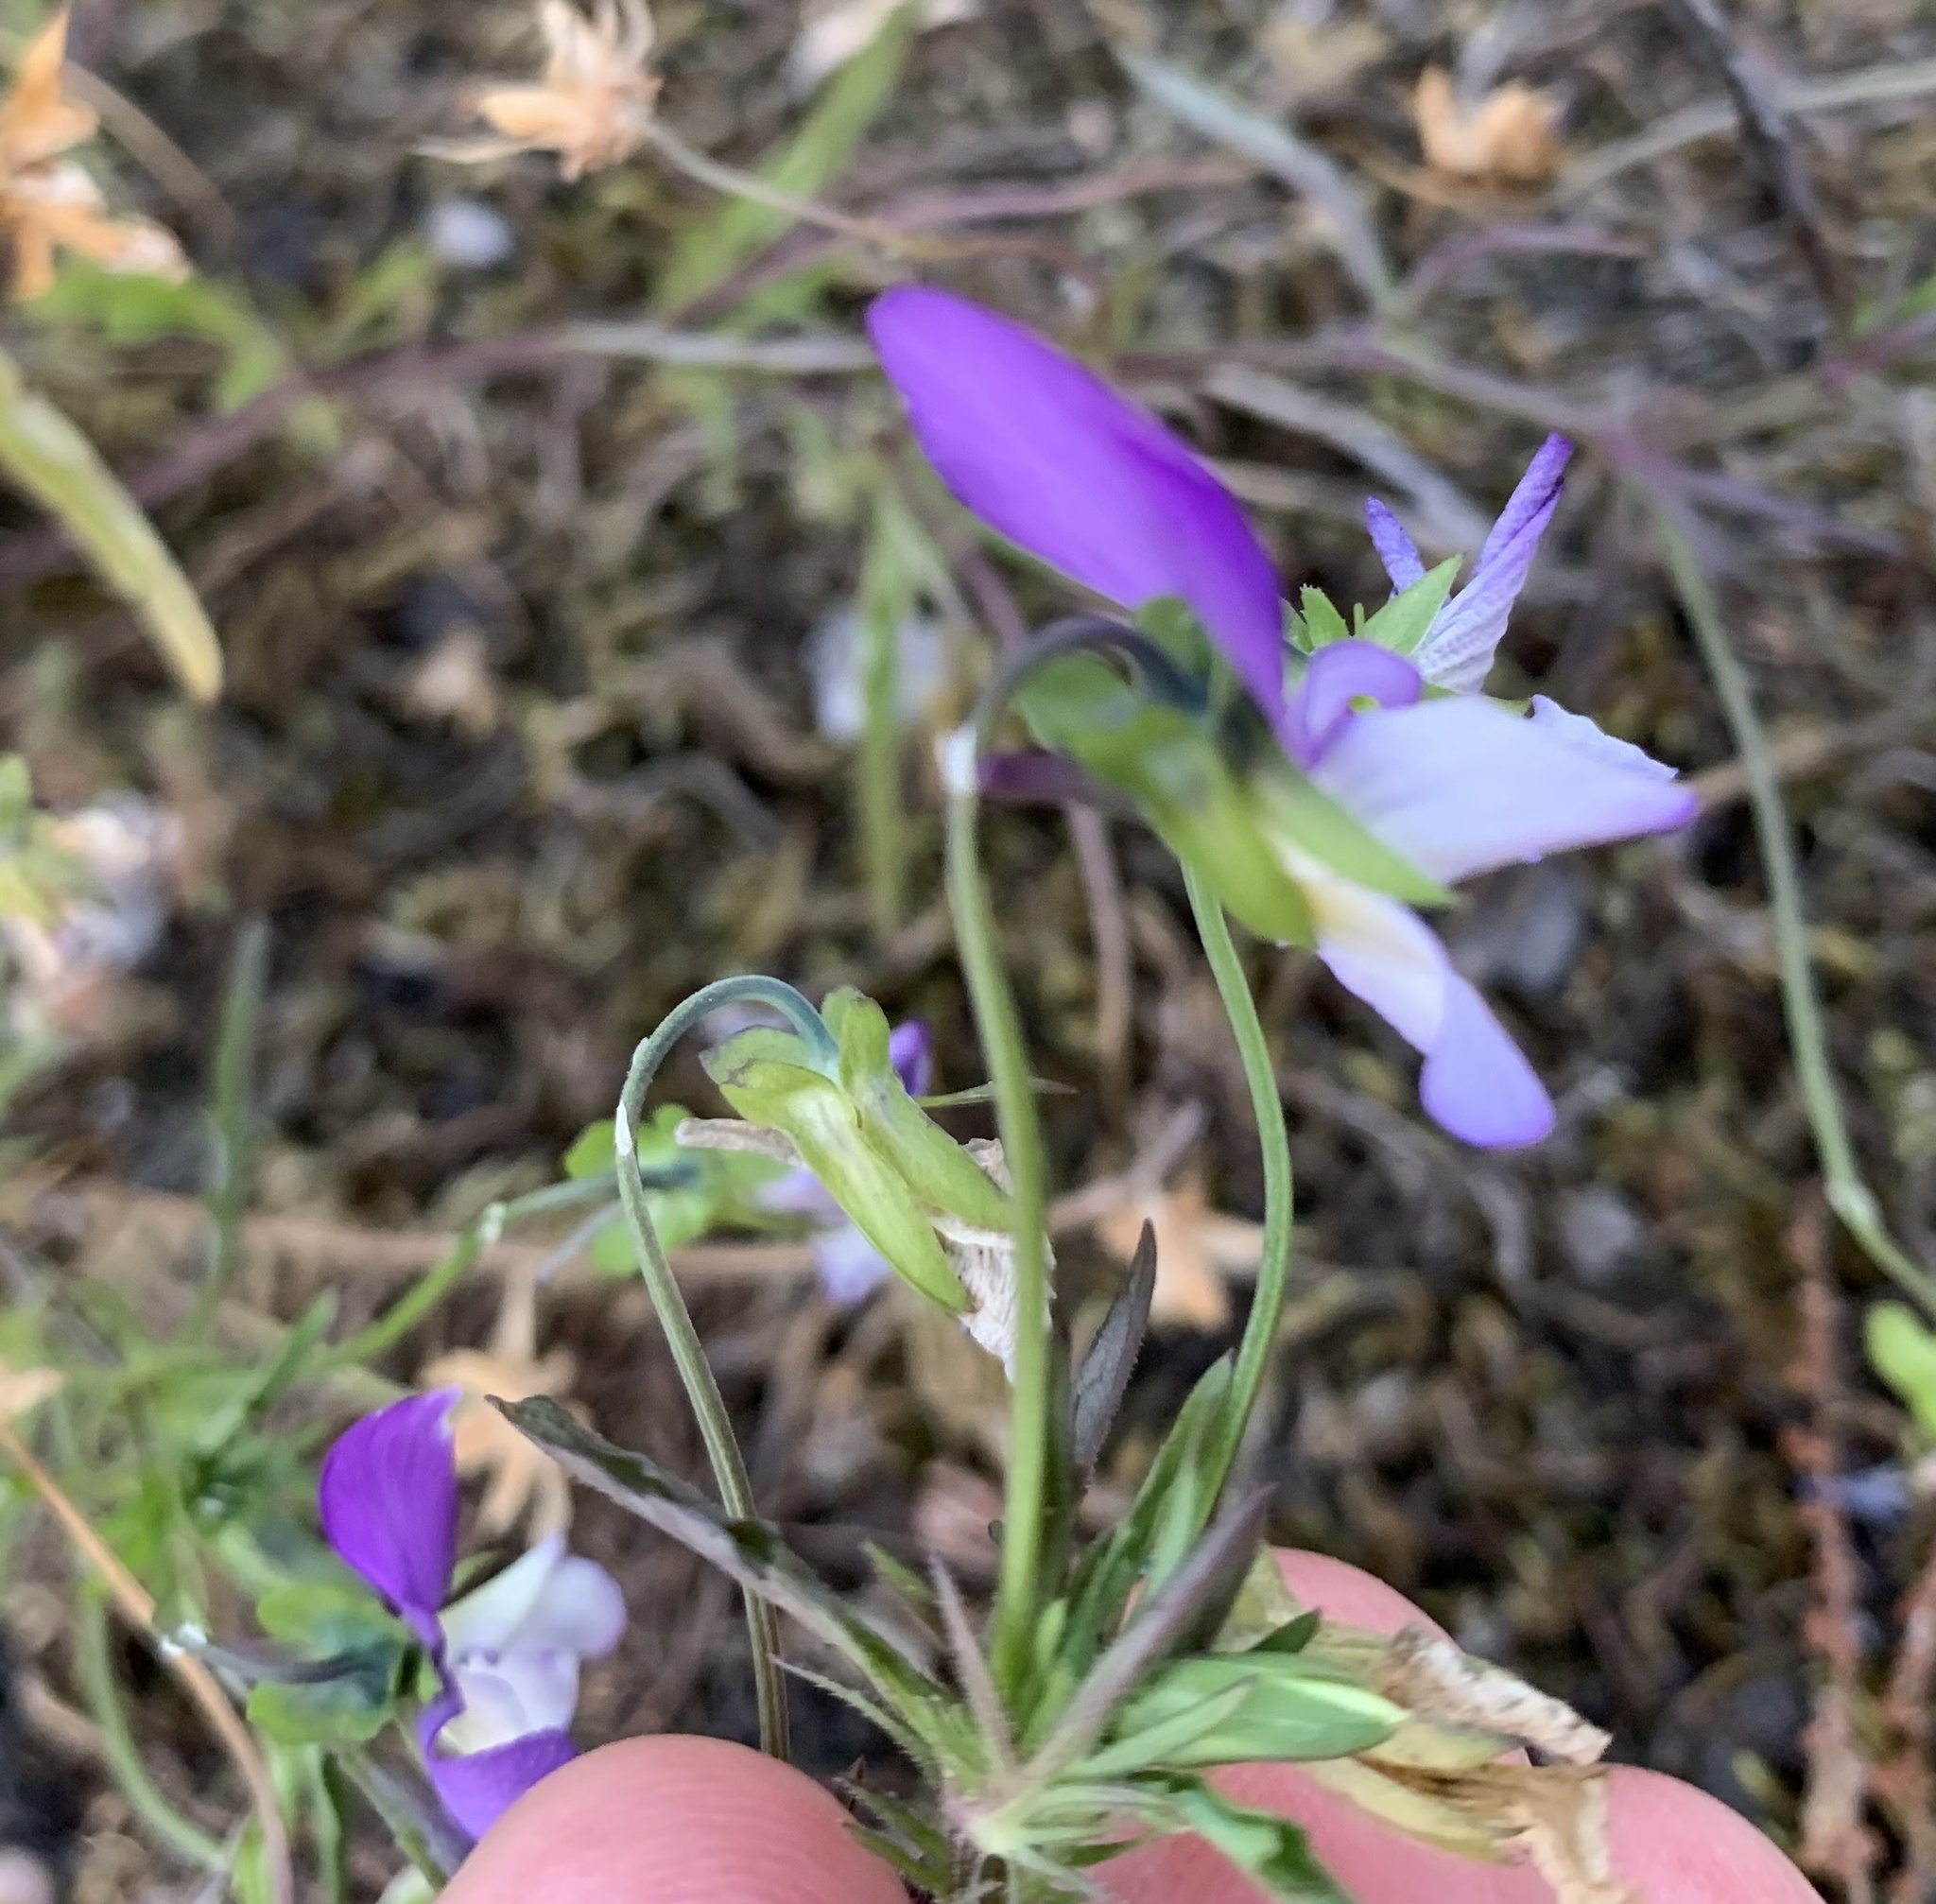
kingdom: Plantae
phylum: Tracheophyta
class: Magnoliopsida
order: Malpighiales
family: Violaceae
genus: Viola
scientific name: Viola tricolor
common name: Pansy
